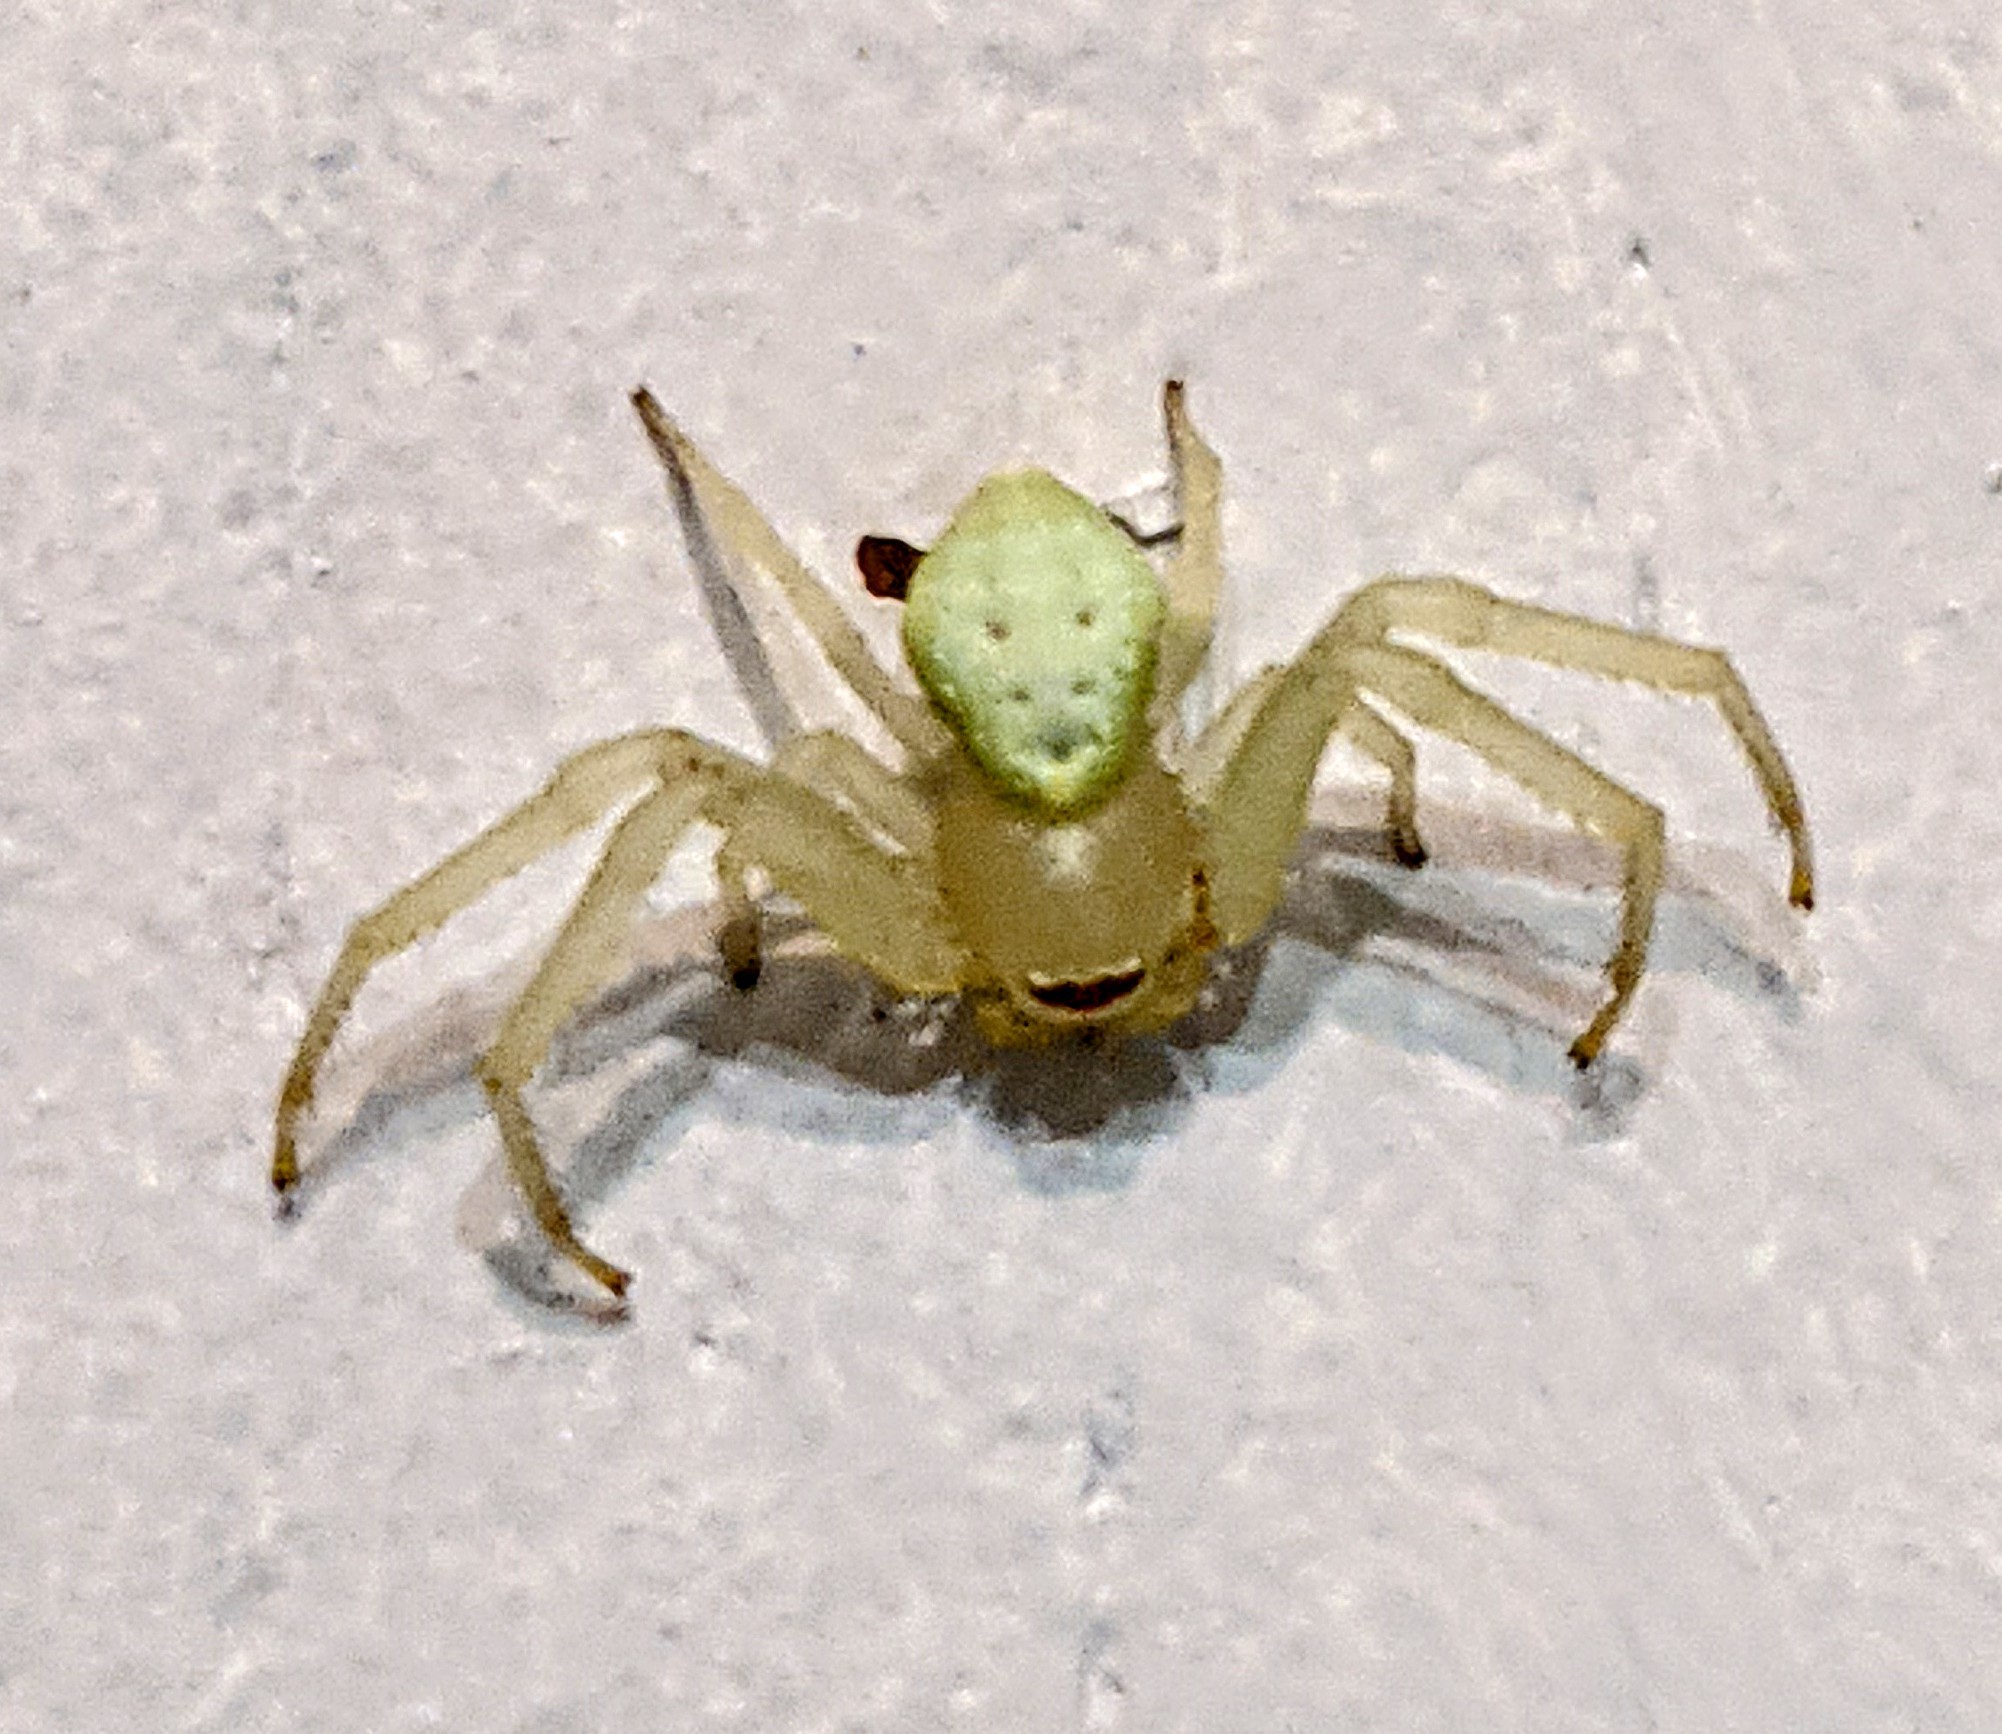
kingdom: Animalia
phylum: Arthropoda
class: Arachnida
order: Araneae
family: Thomisidae
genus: Misumena
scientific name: Misumena vatia
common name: Goldenrod crab spider
